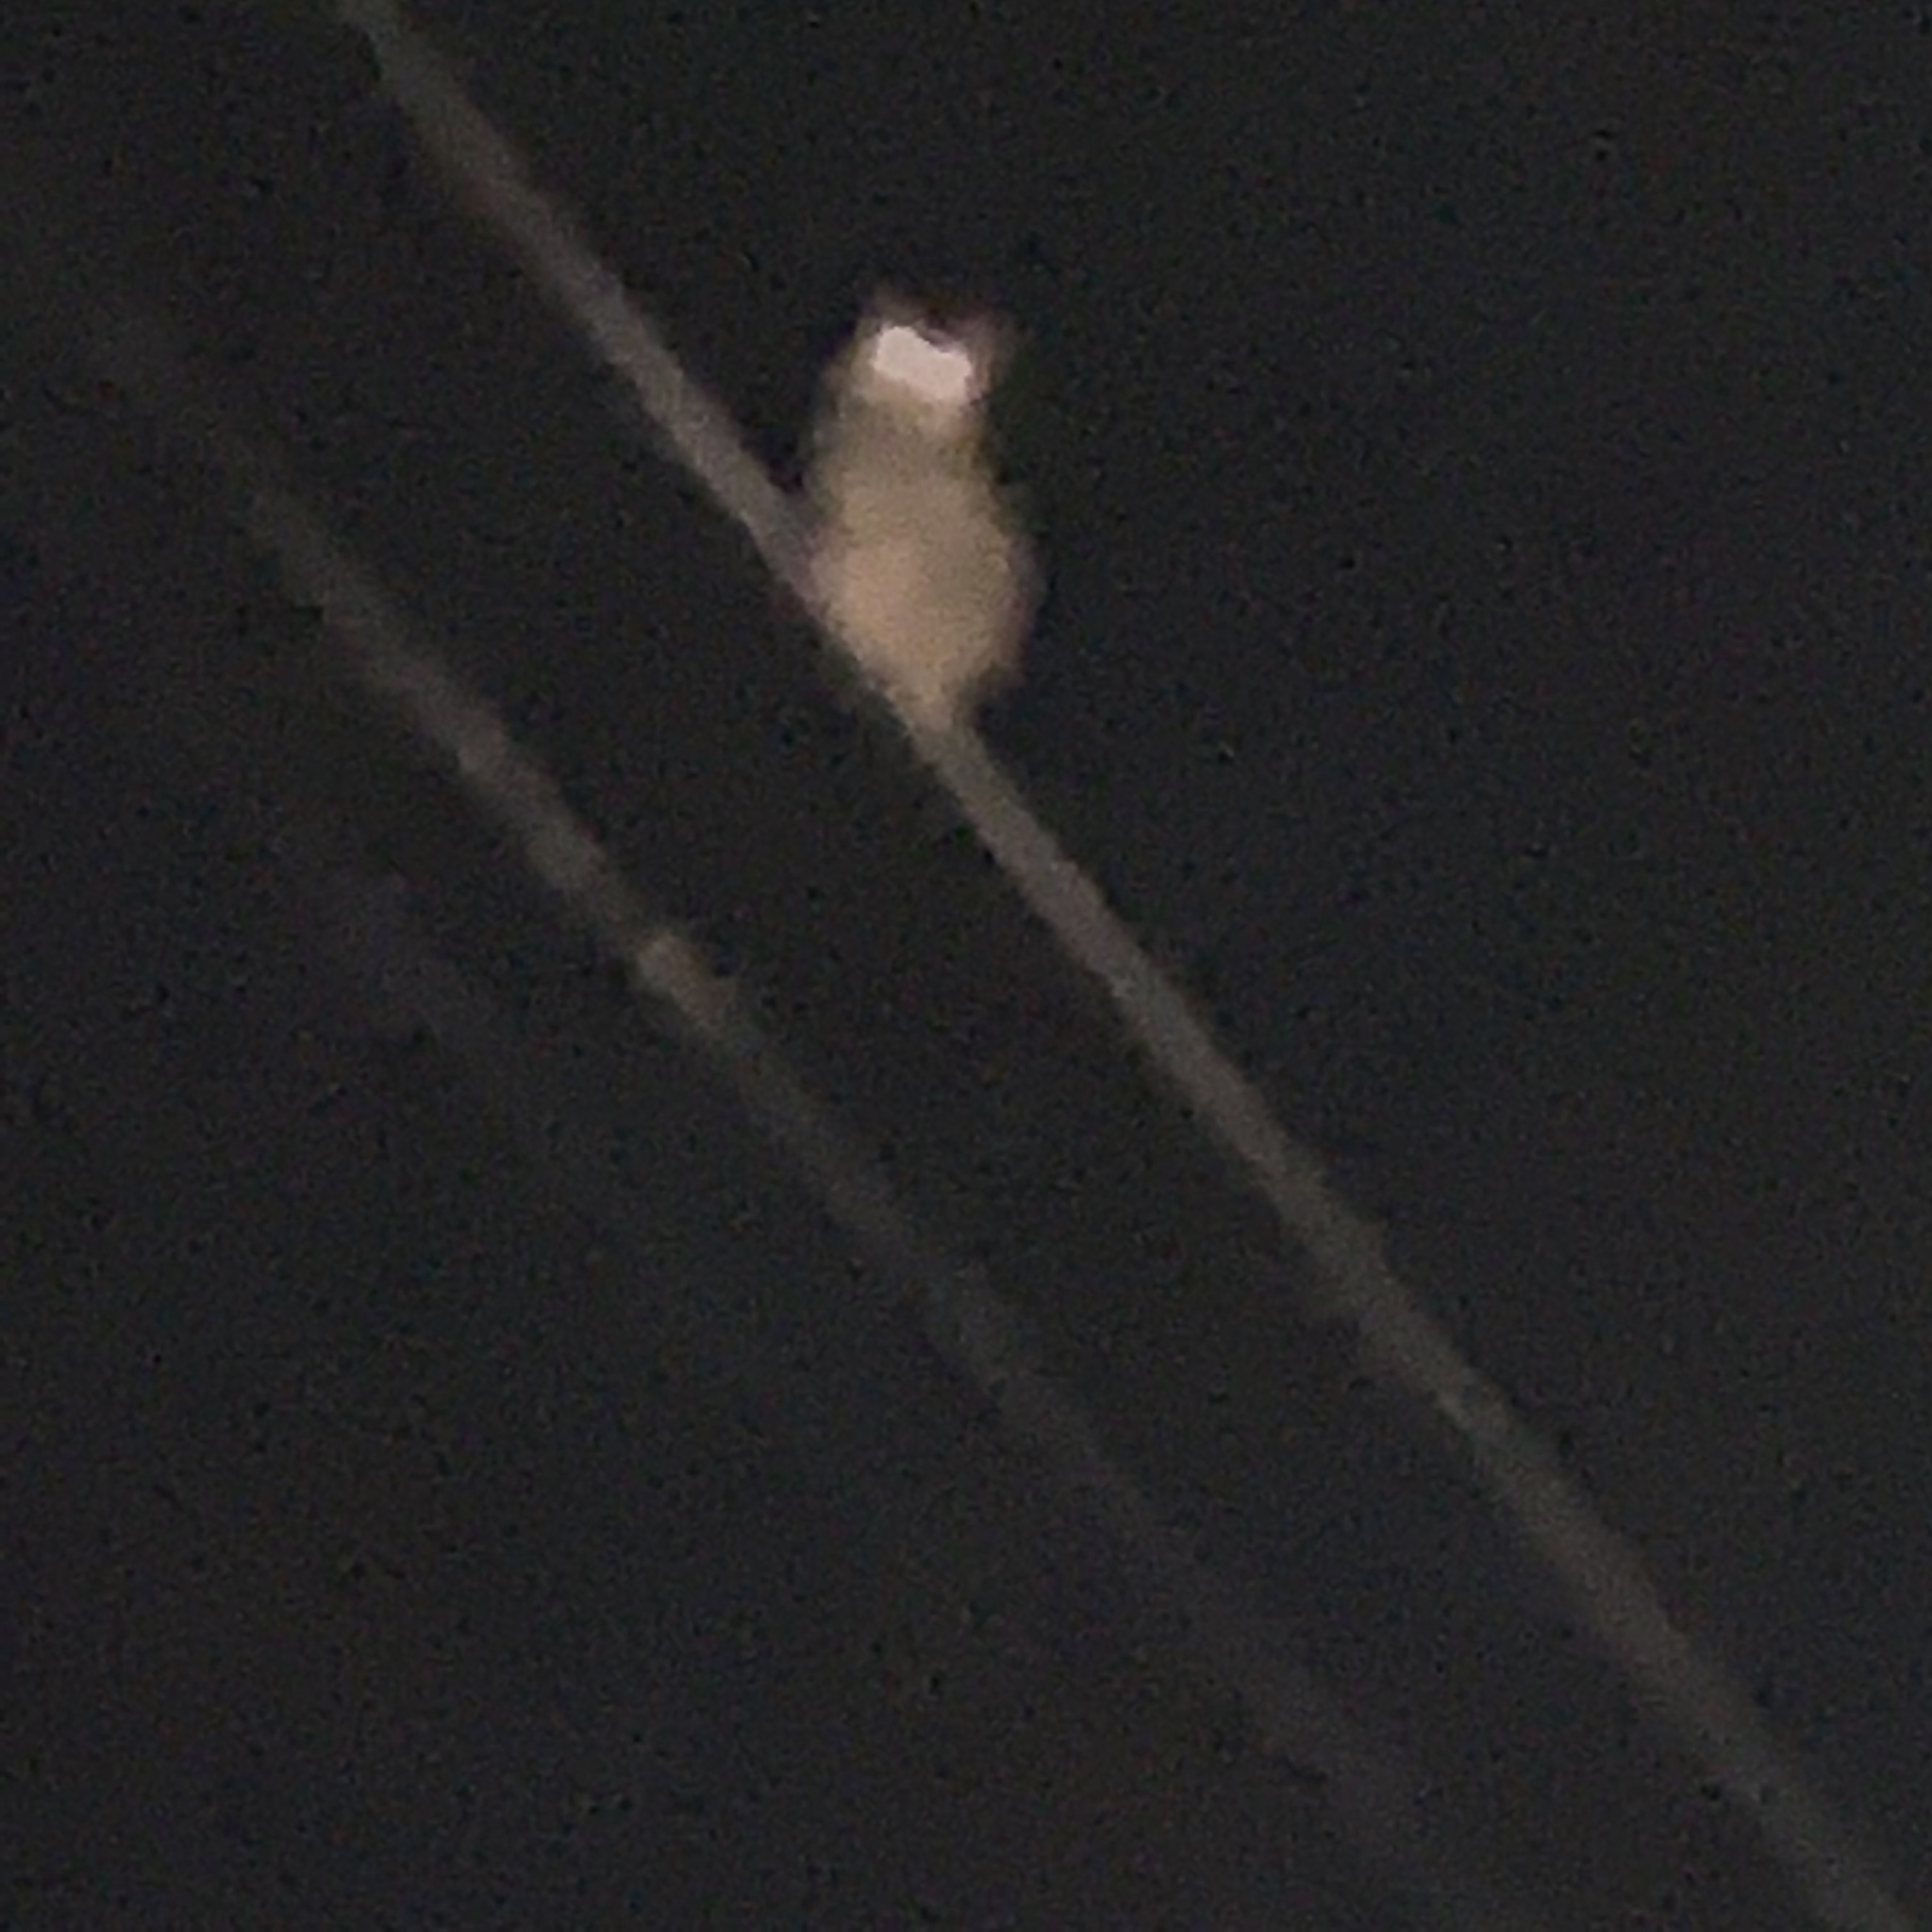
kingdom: Animalia
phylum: Chordata
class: Aves
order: Strigiformes
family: Strigidae
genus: Bubo
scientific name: Bubo virginianus
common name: Great horned owl
